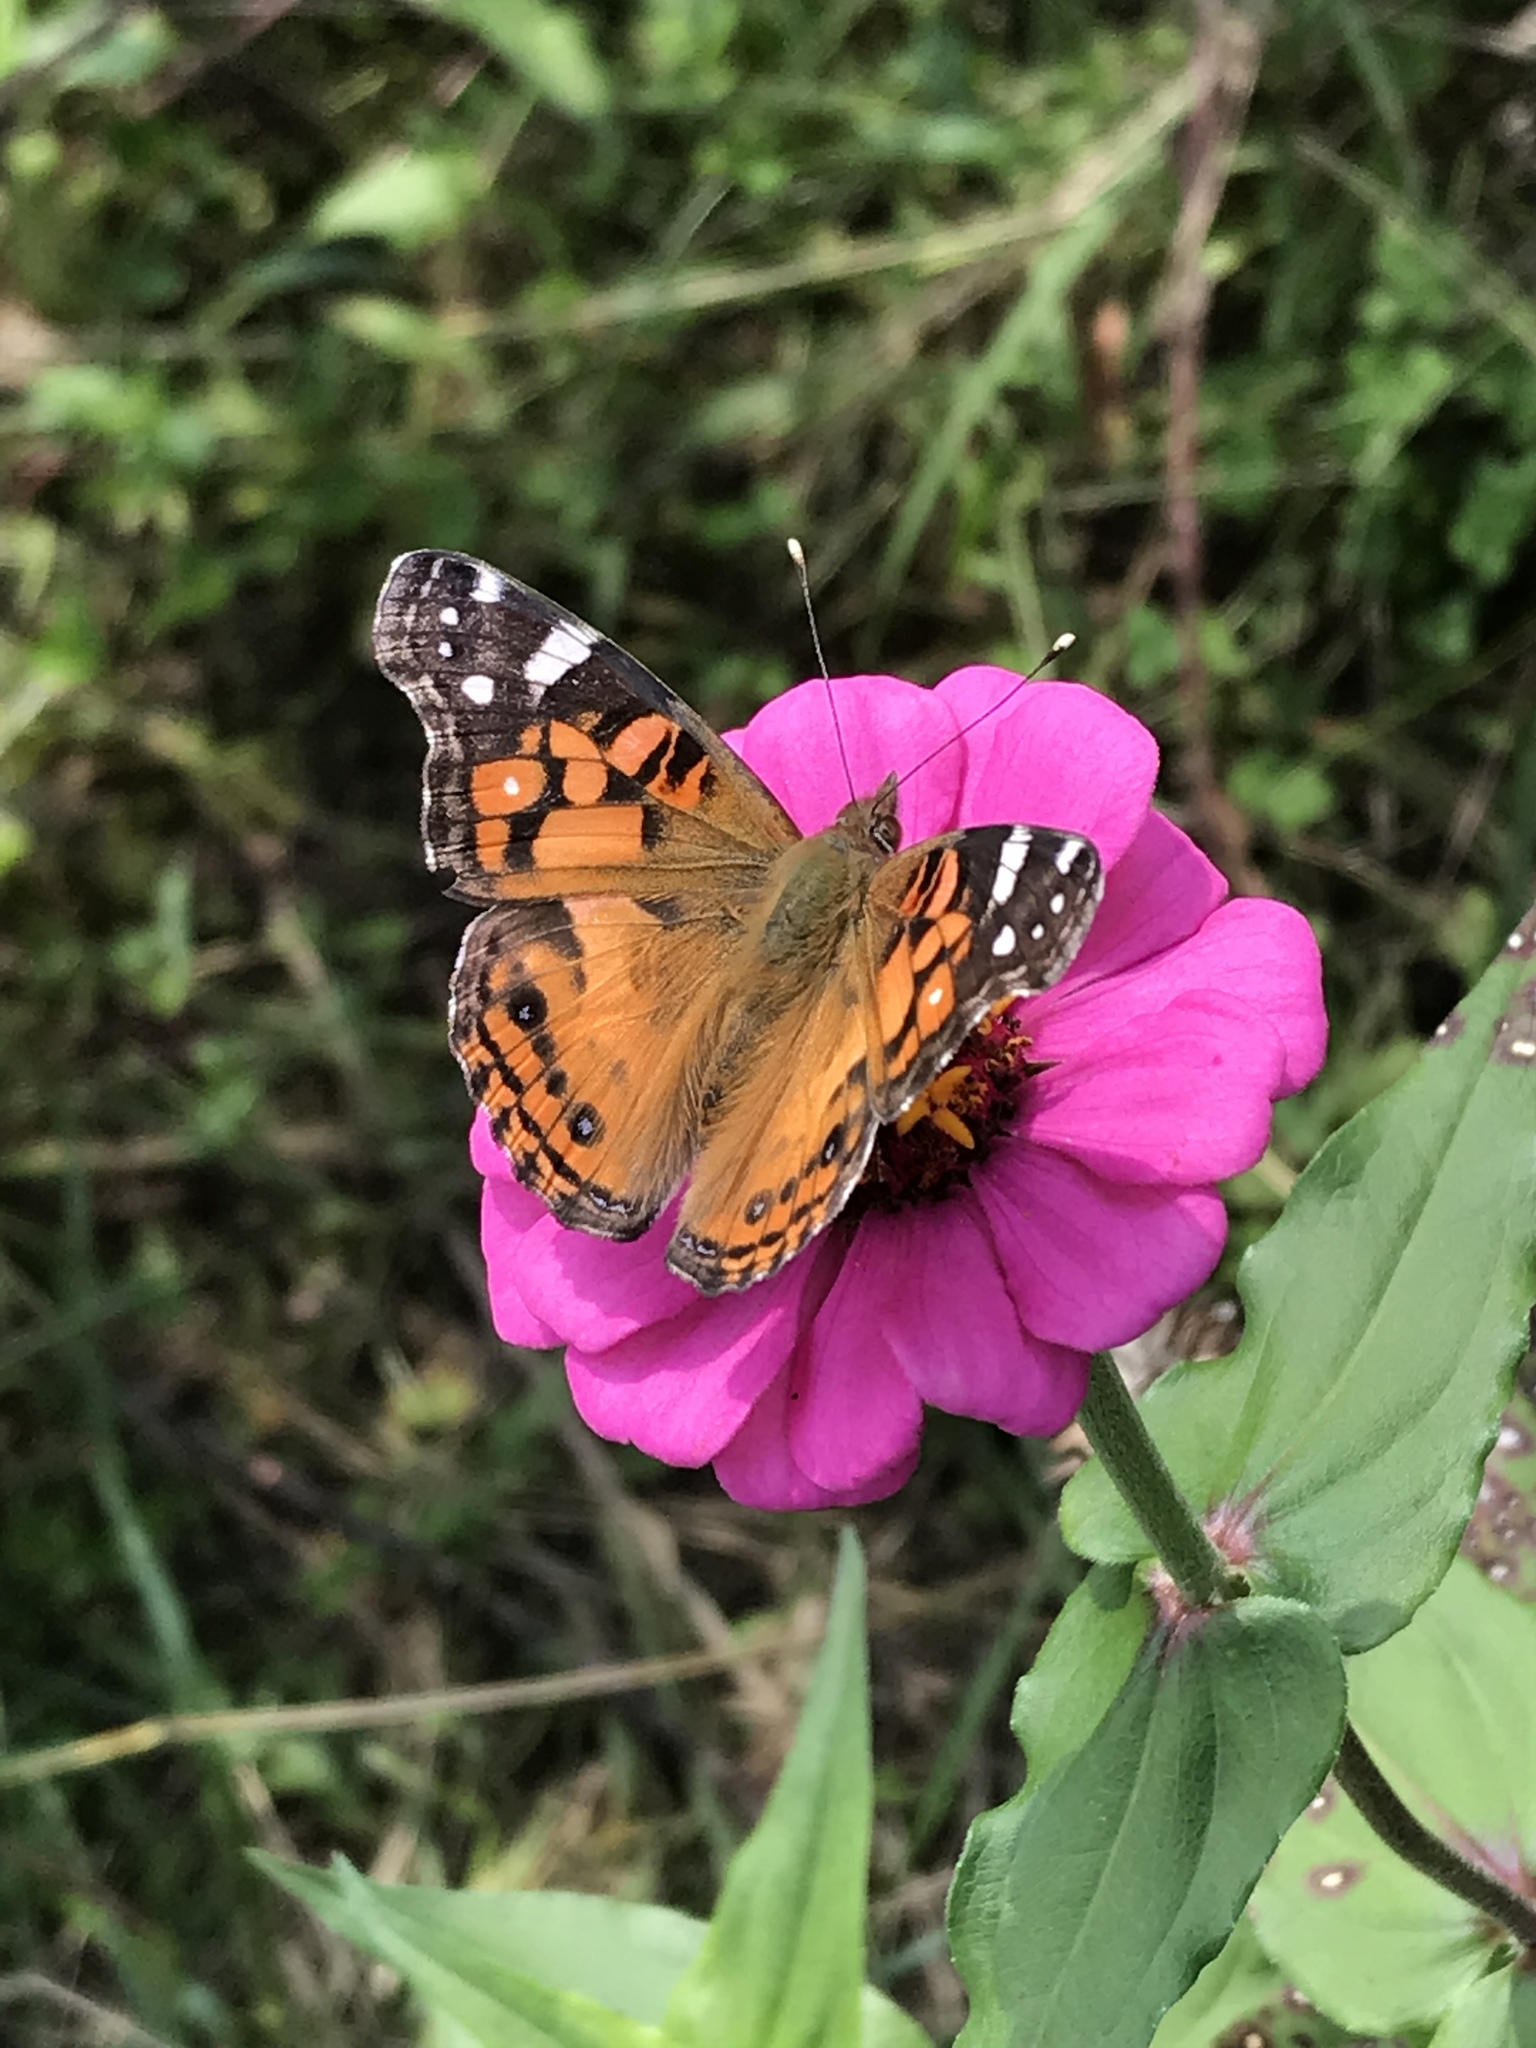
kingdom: Animalia
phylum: Arthropoda
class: Insecta
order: Lepidoptera
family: Nymphalidae
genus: Vanessa
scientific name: Vanessa virginiensis
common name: American lady
